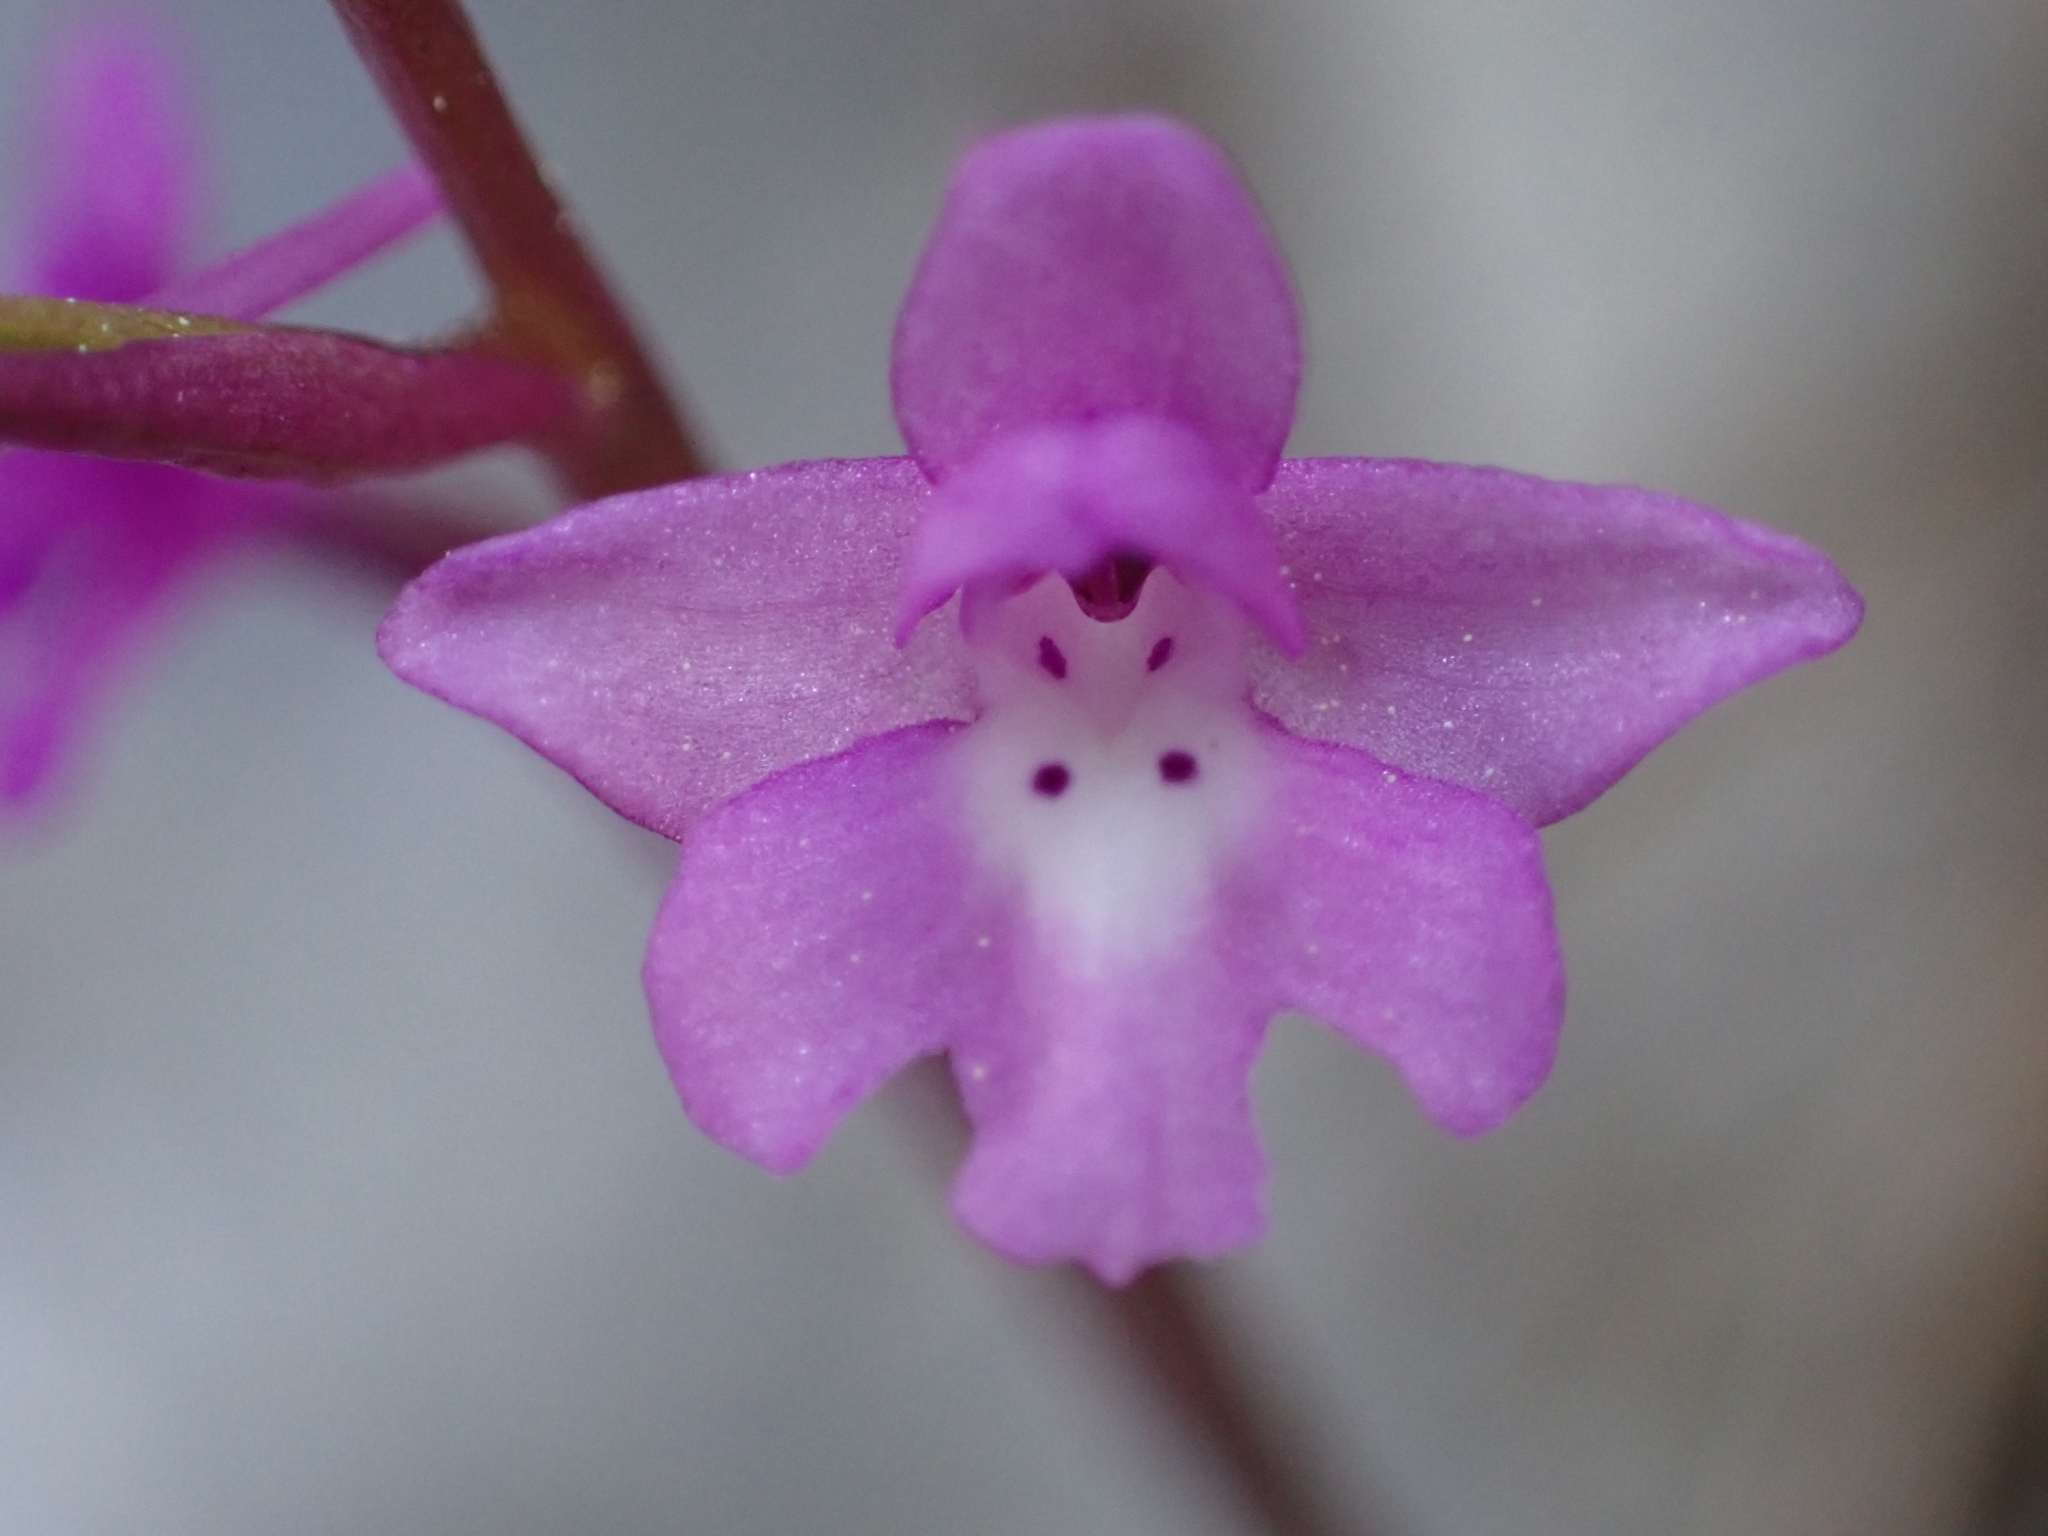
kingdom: Plantae
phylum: Tracheophyta
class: Liliopsida
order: Asparagales
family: Orchidaceae
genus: Orchis
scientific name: Orchis quadripunctata
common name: Four-spotted orchid
